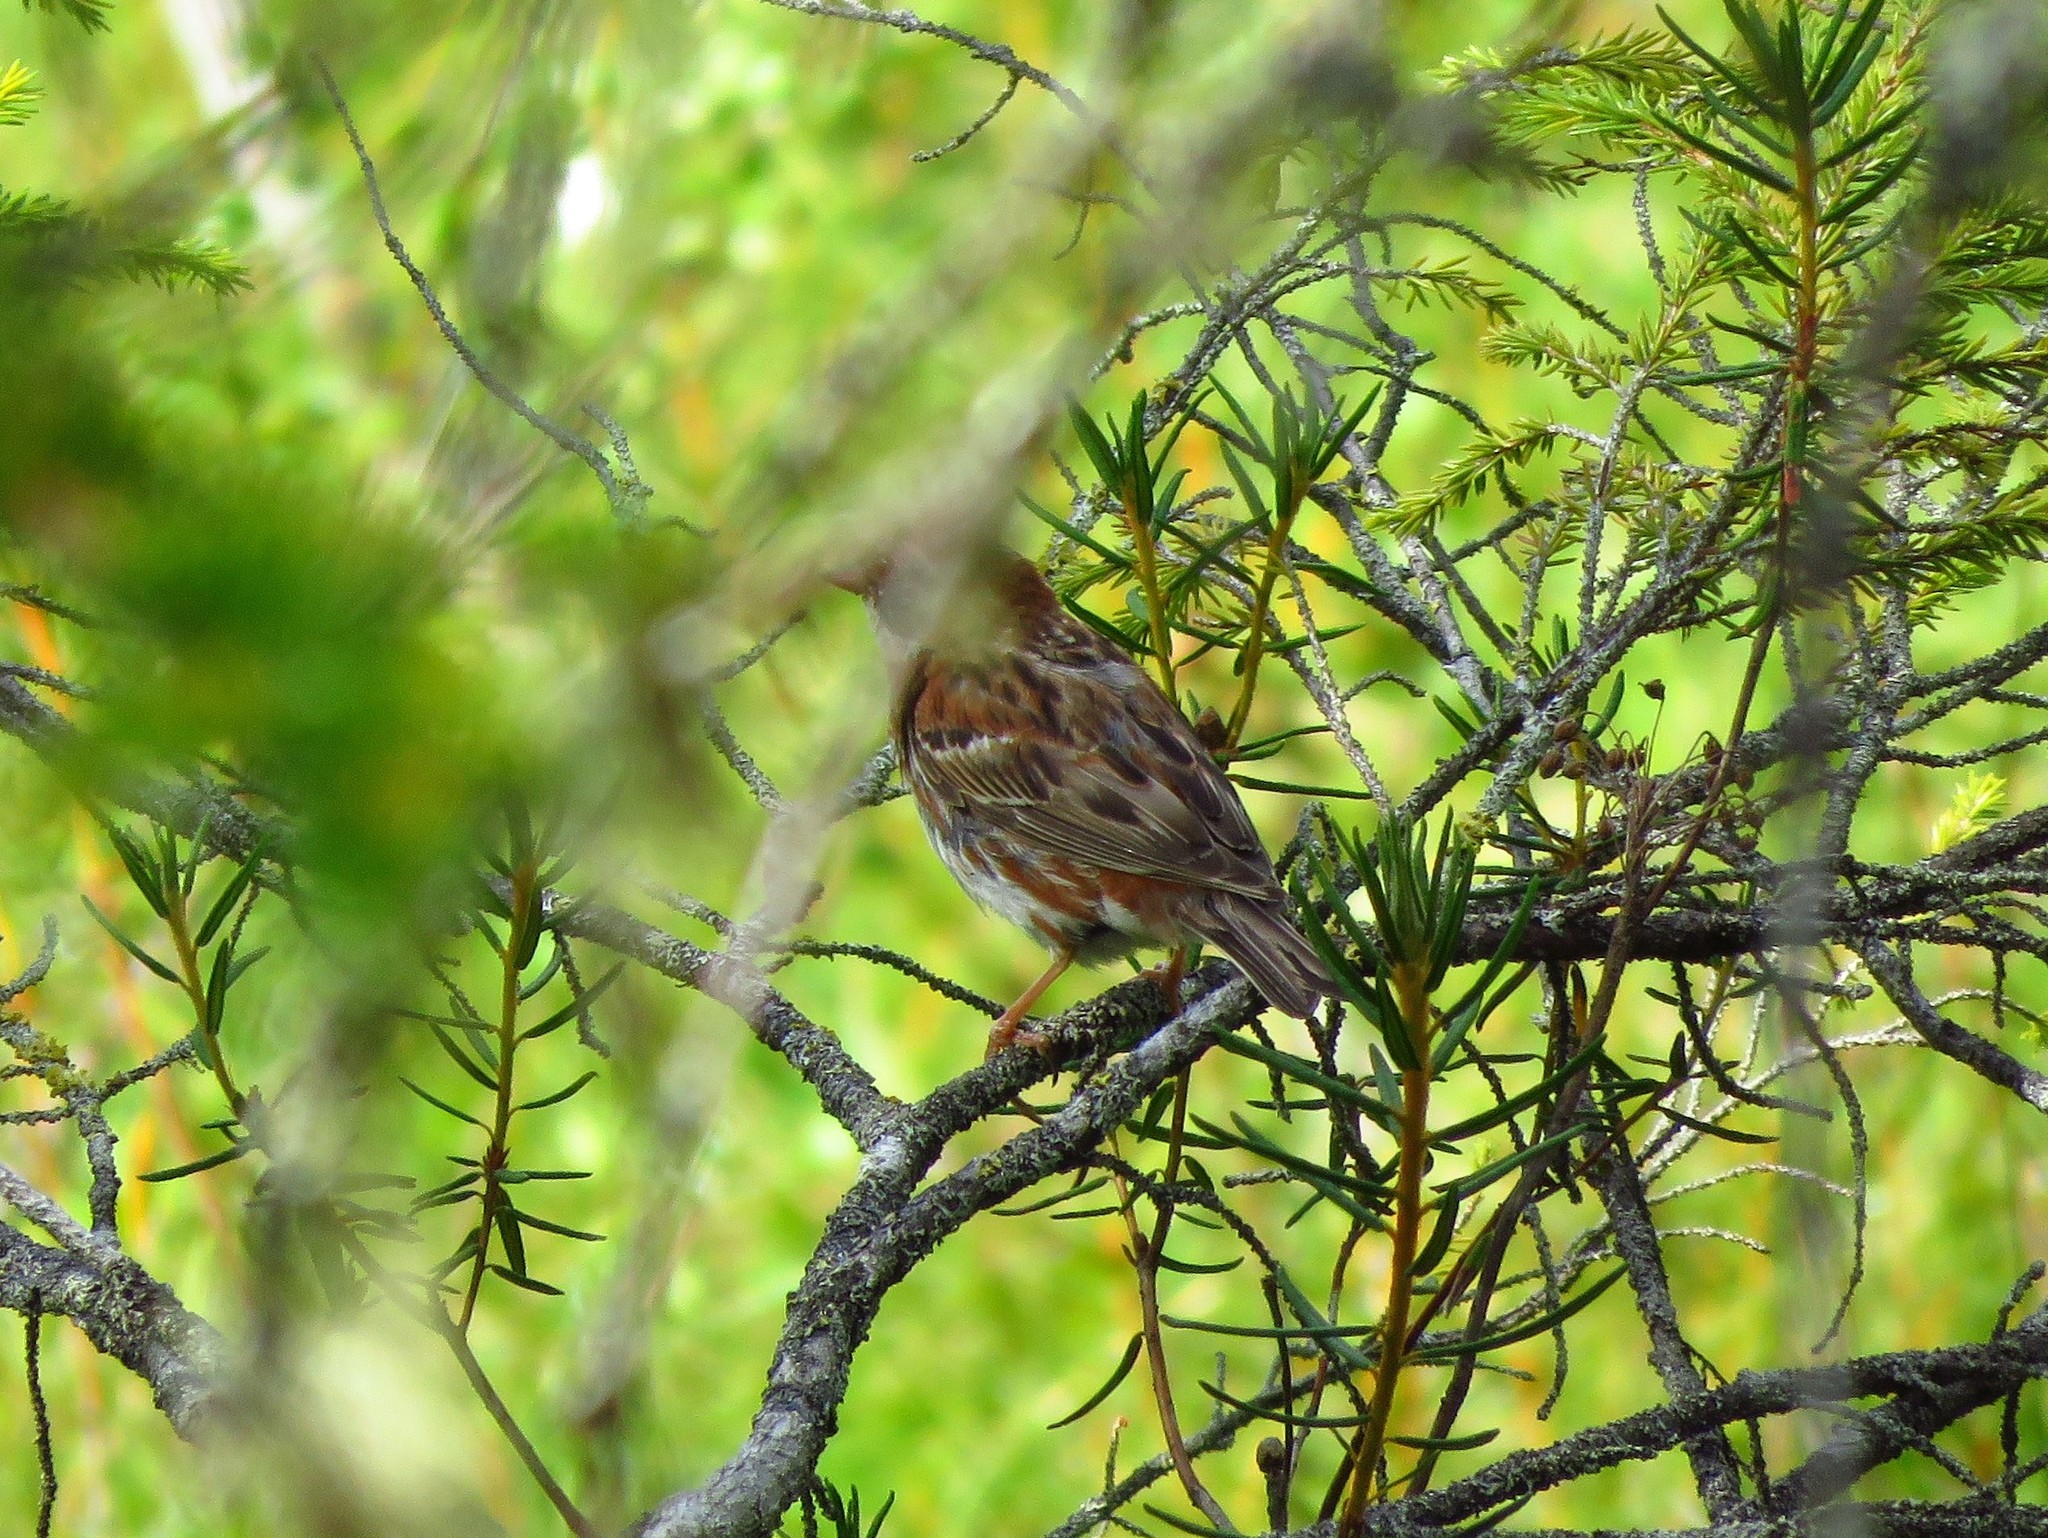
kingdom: Animalia
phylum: Chordata
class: Aves
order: Passeriformes
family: Emberizidae
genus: Emberiza
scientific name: Emberiza rustica
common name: Rustic bunting
